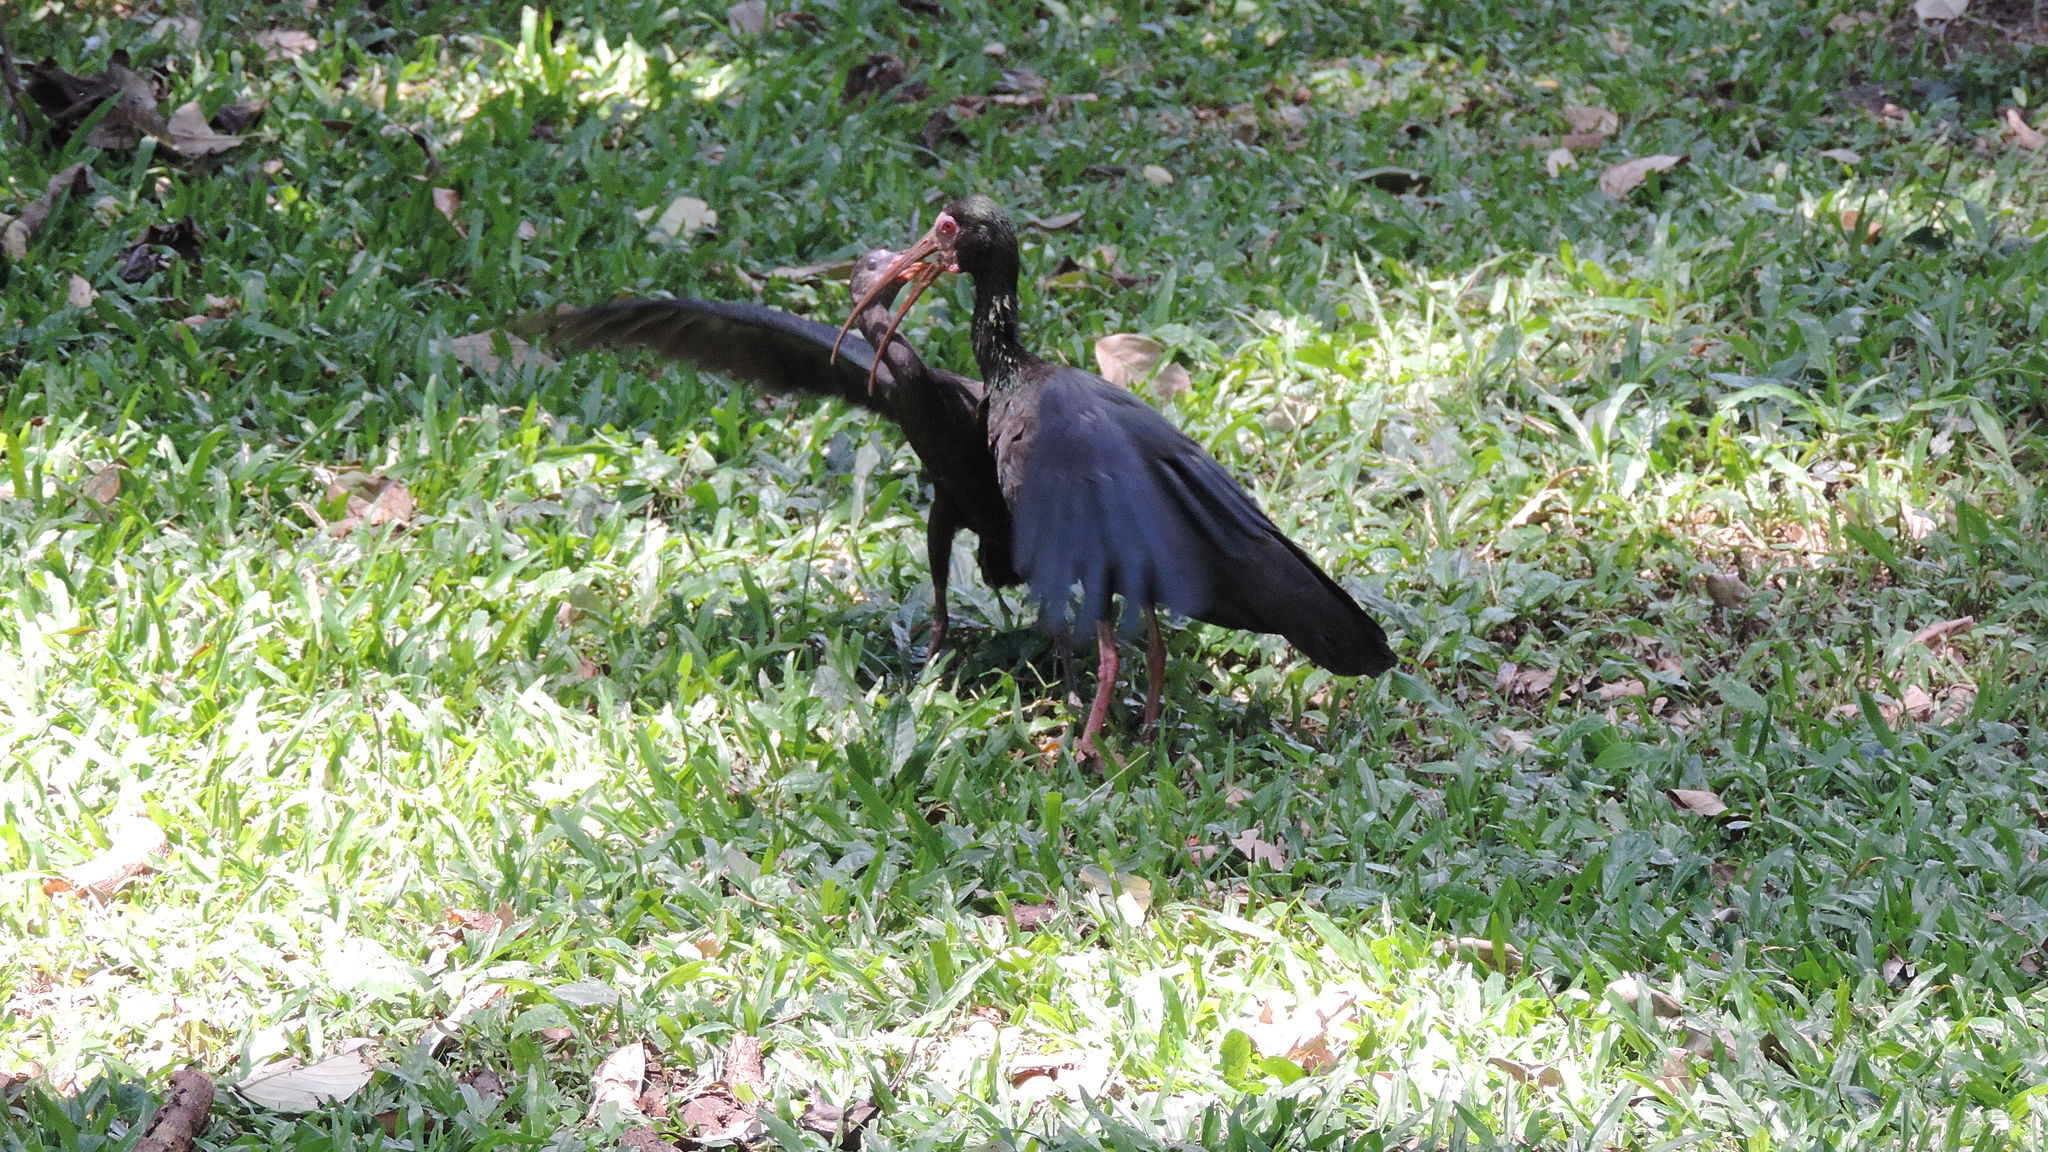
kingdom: Animalia
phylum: Chordata
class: Aves
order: Pelecaniformes
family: Threskiornithidae
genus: Phimosus
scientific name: Phimosus infuscatus
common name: Bare-faced ibis
